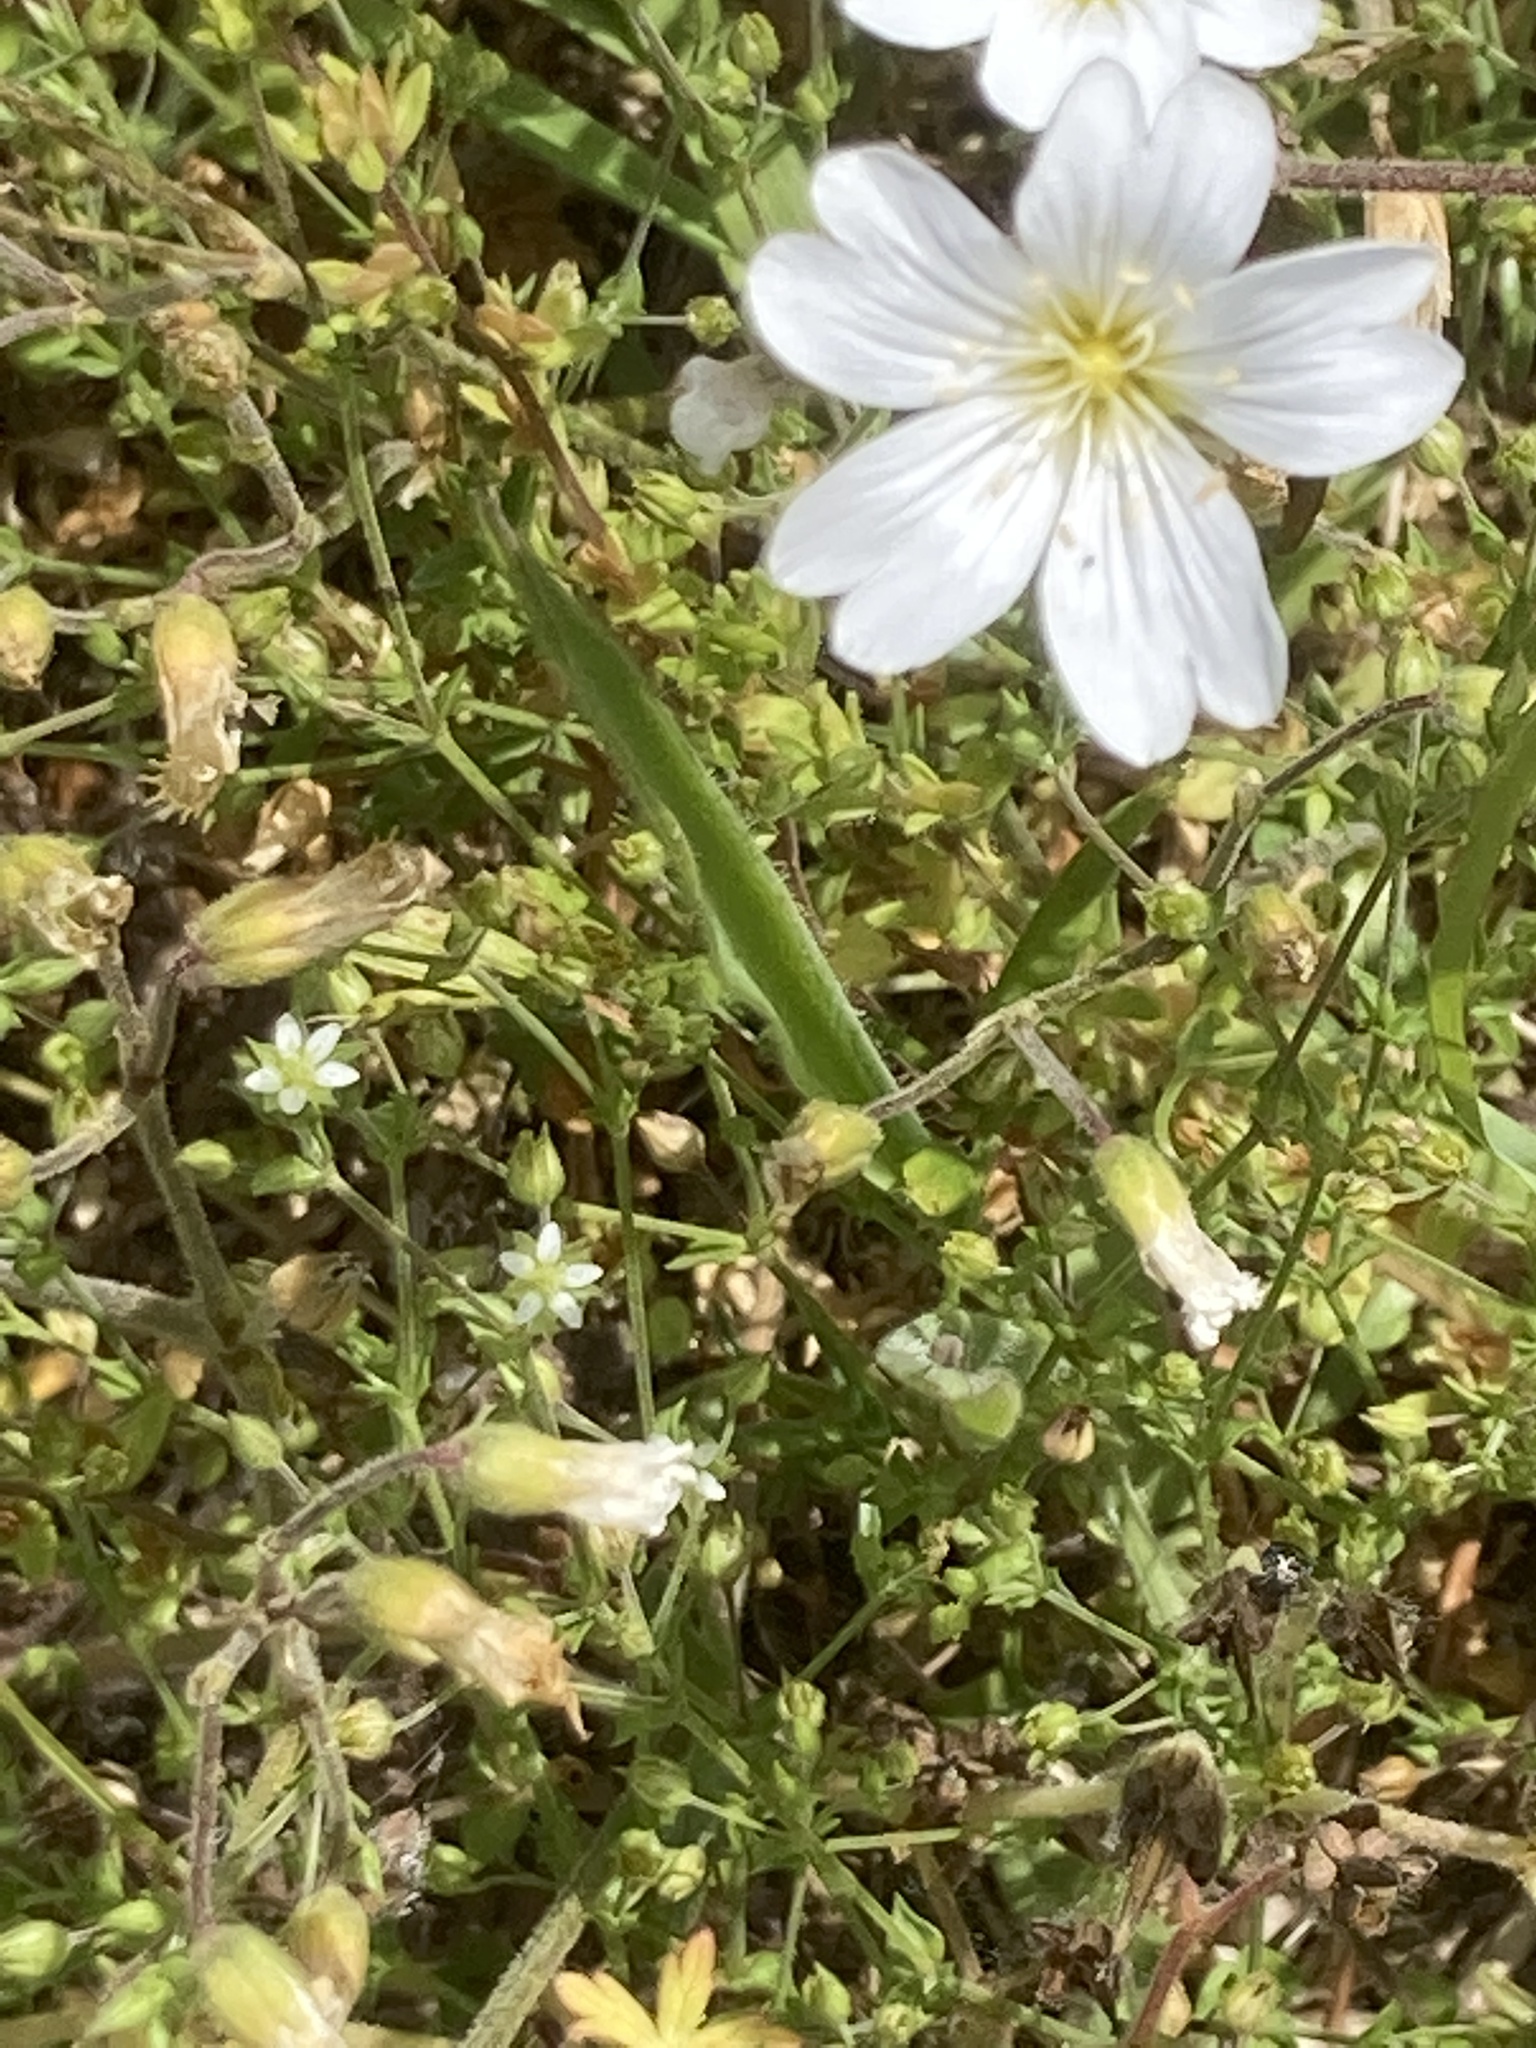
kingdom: Plantae
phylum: Tracheophyta
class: Magnoliopsida
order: Caryophyllales
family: Caryophyllaceae
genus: Cerastium
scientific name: Cerastium arvense
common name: Field mouse-ear
